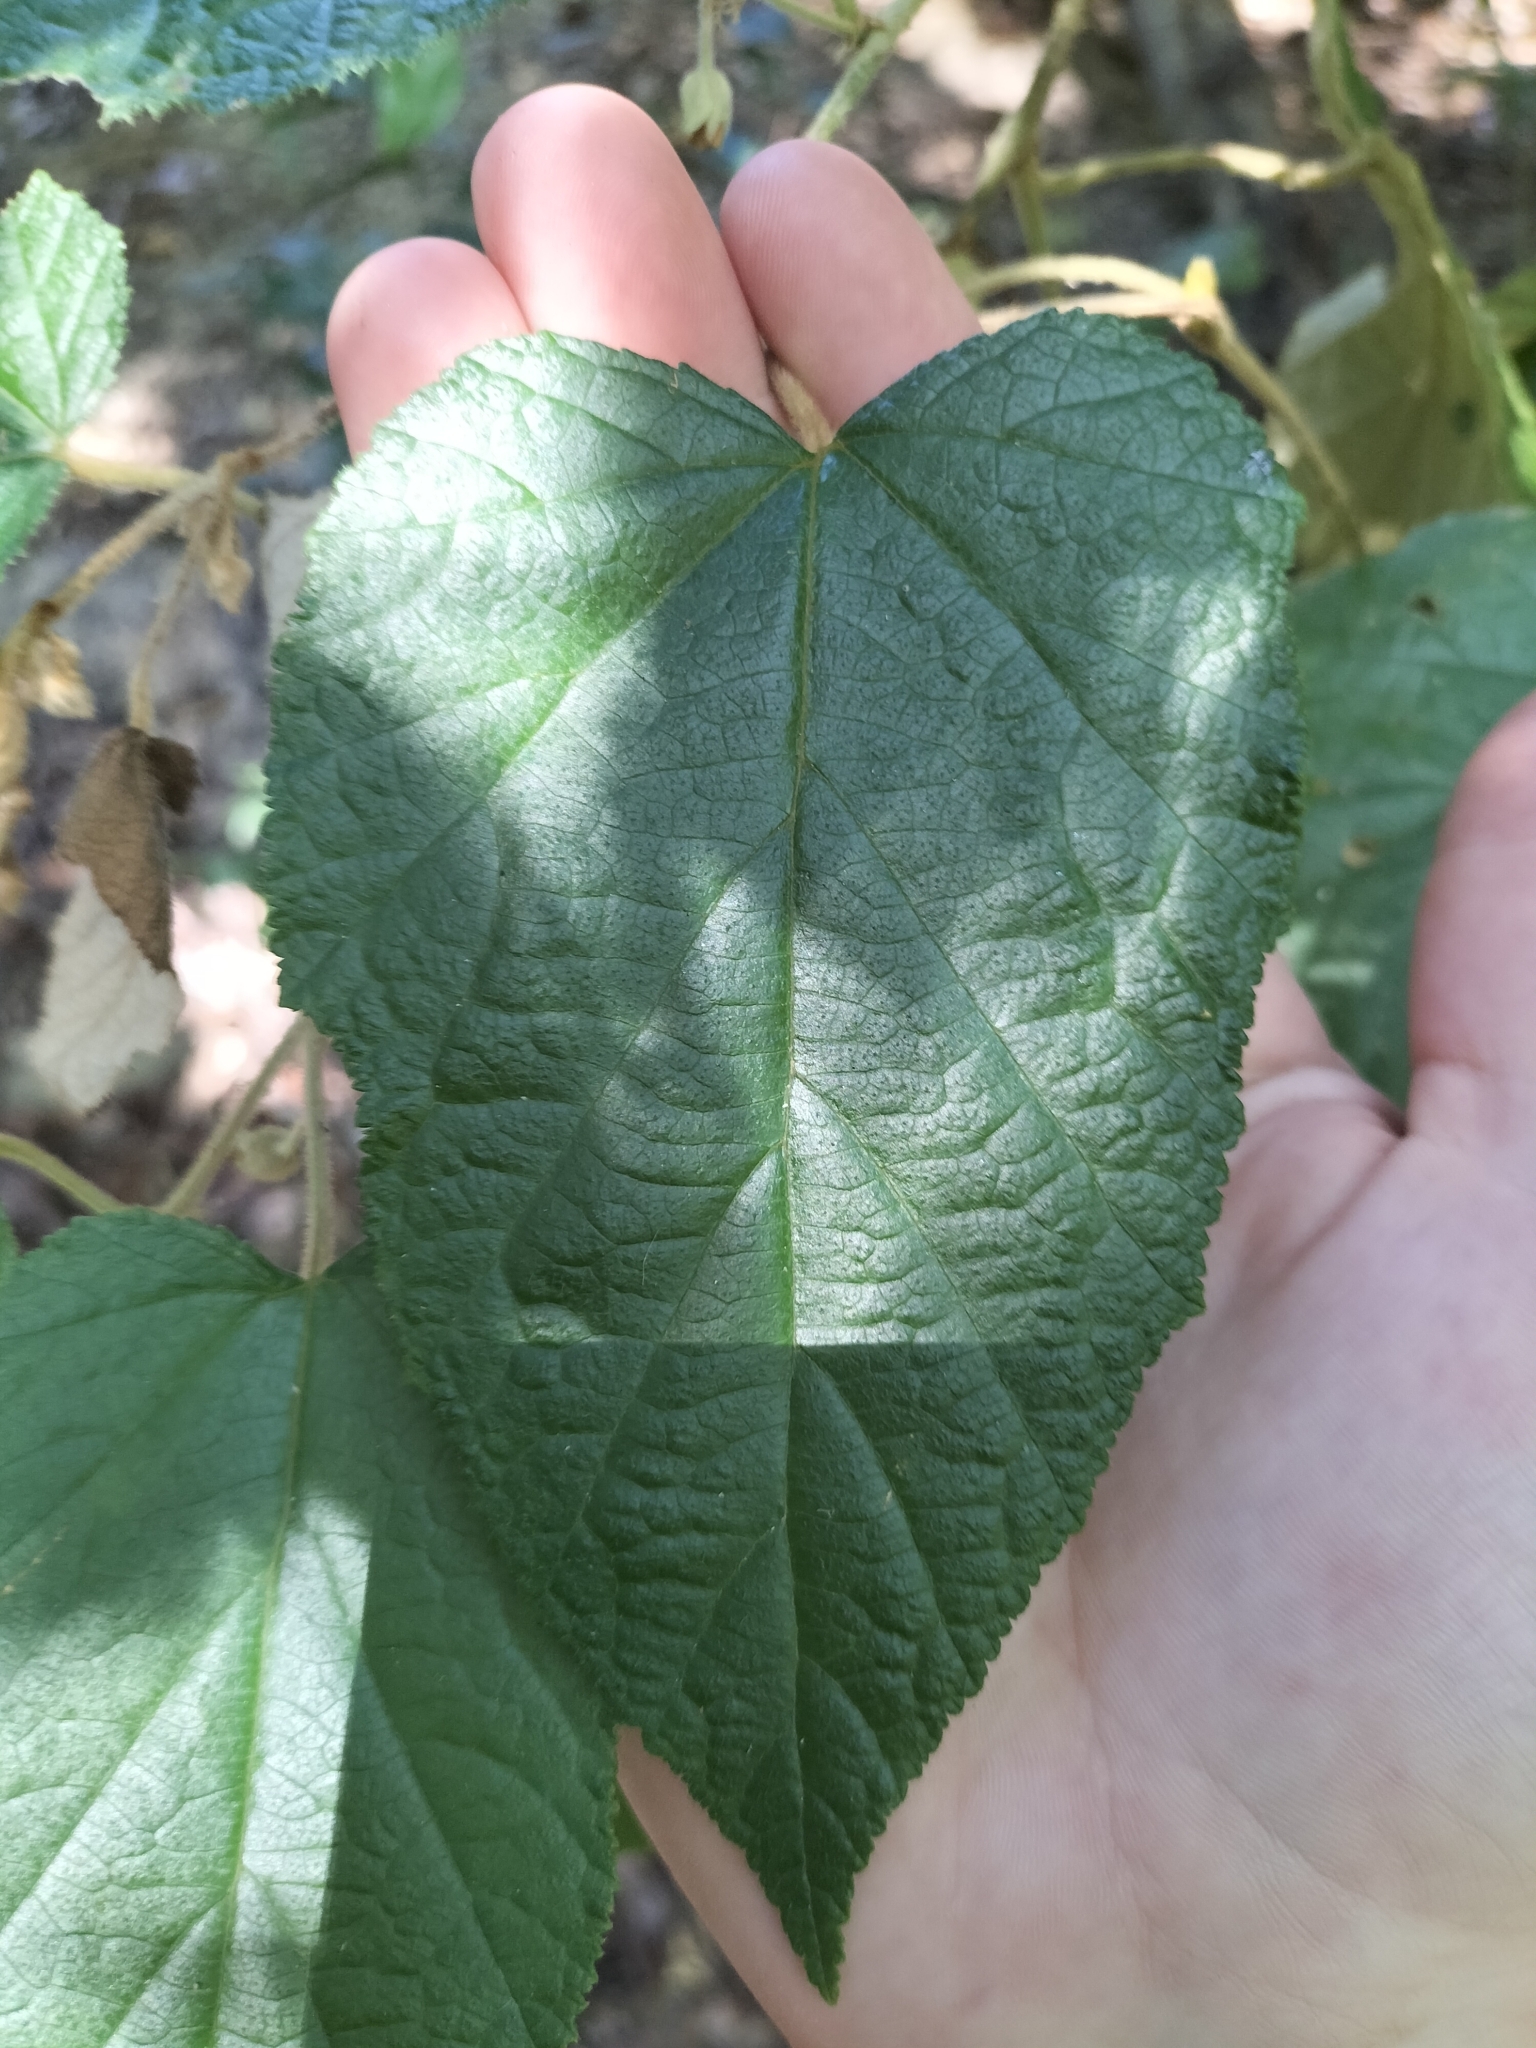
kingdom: Plantae
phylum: Tracheophyta
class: Magnoliopsida
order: Rosales
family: Rosaceae
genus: Rubus
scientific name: Rubus moluccanus
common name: Wild raspberry
